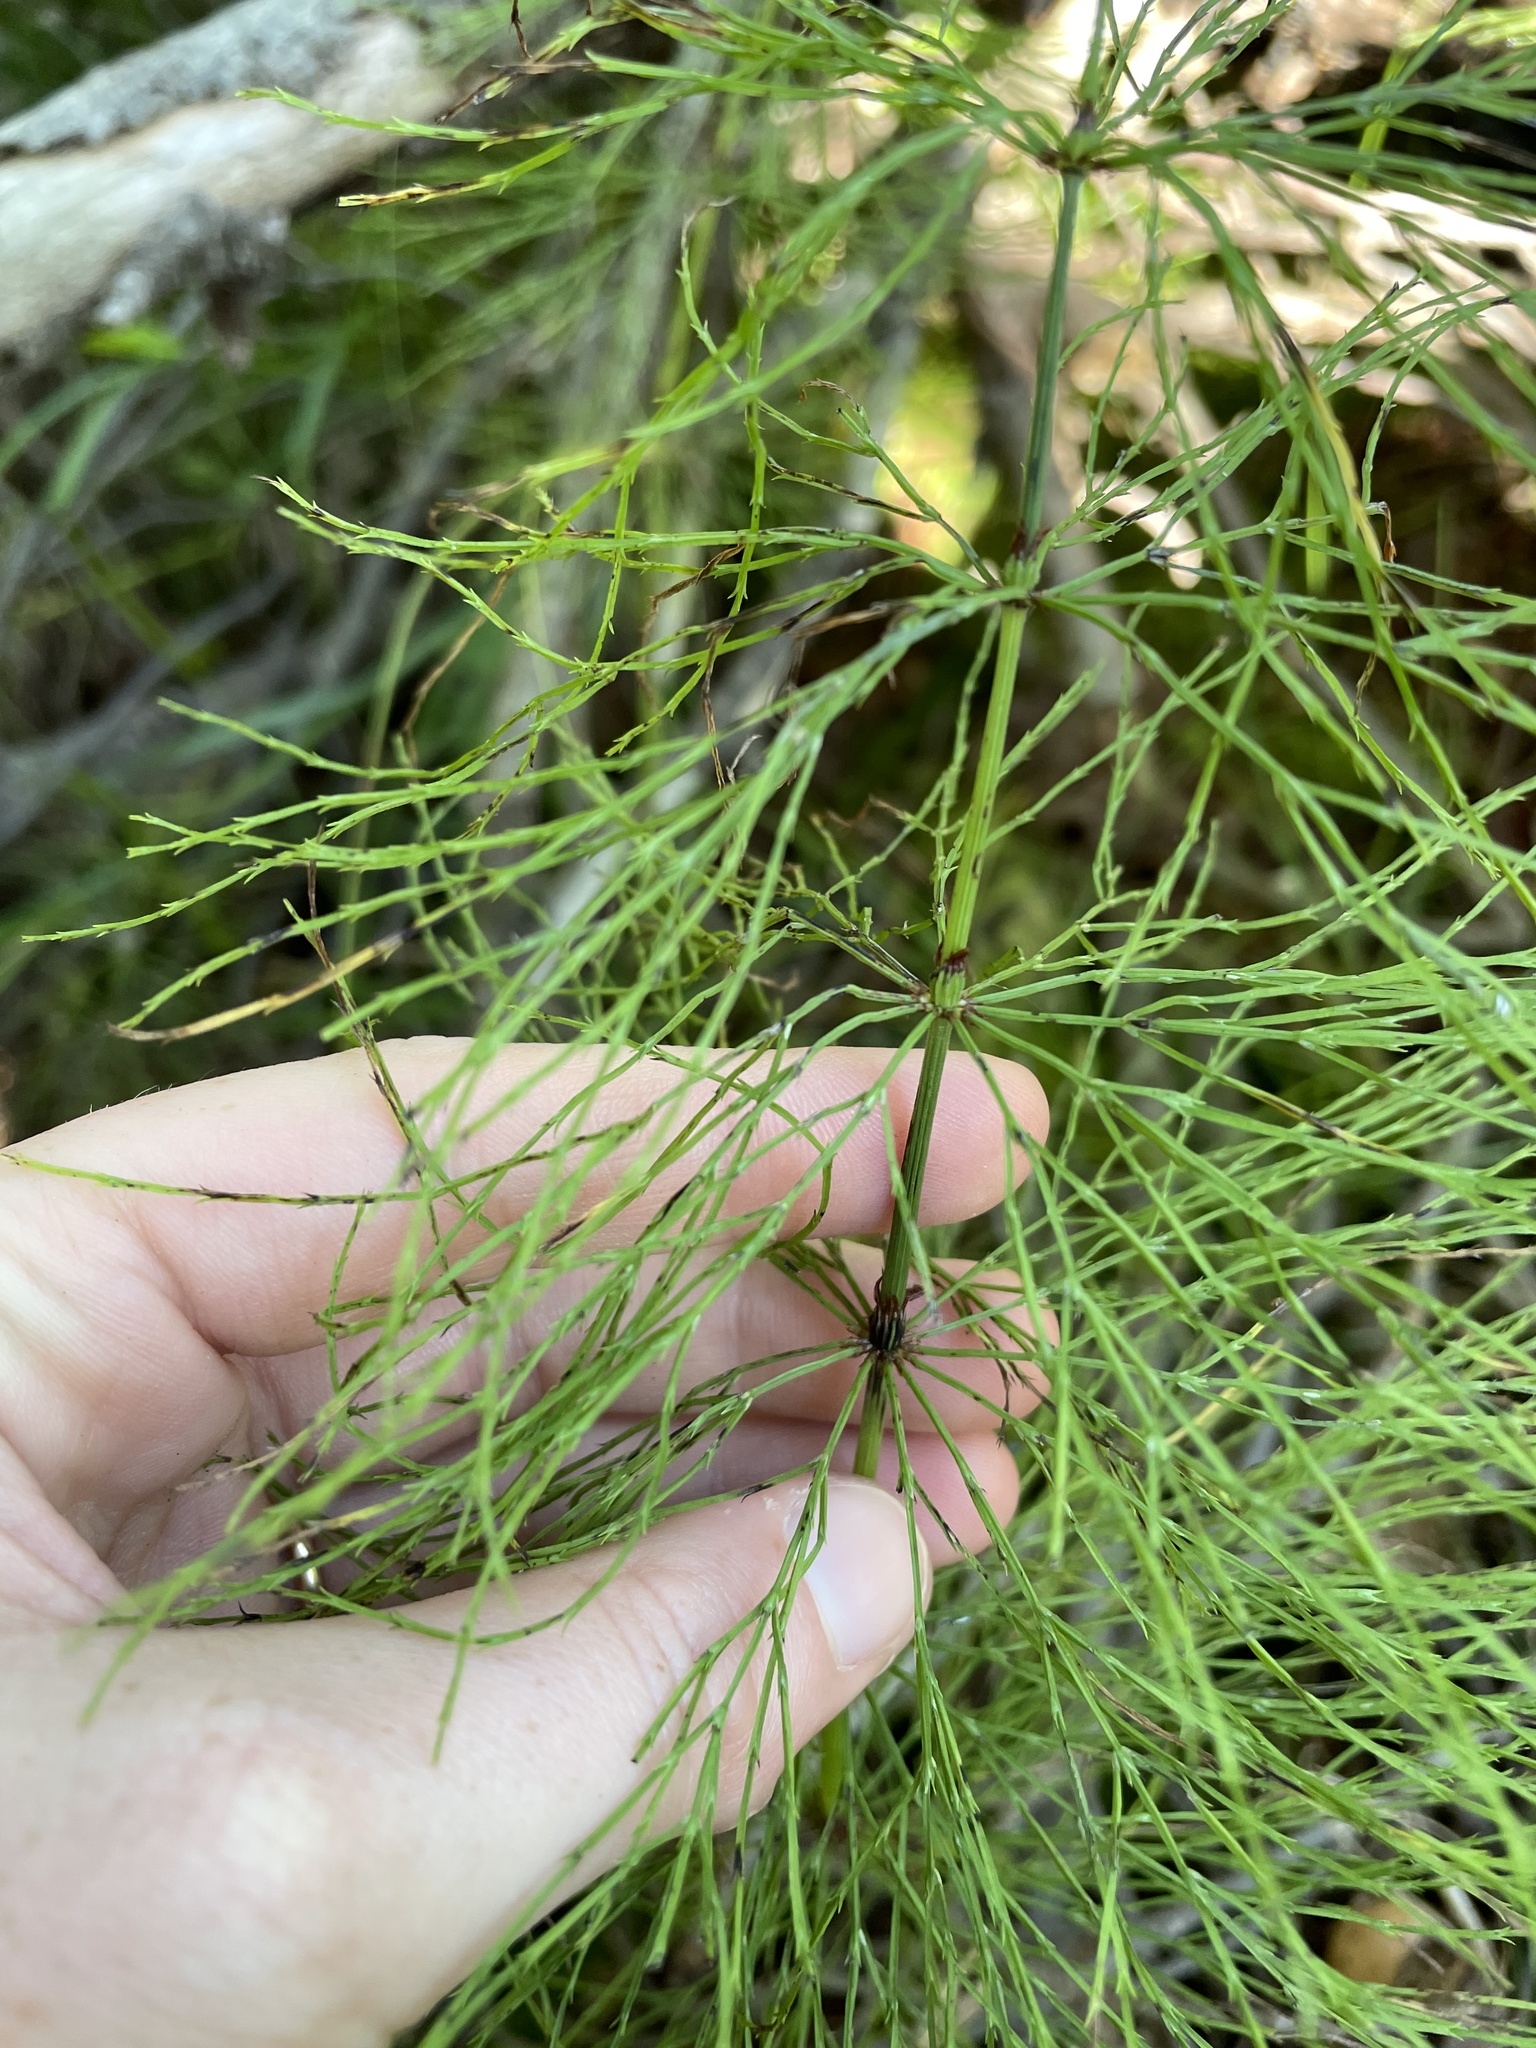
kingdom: Plantae
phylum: Tracheophyta
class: Polypodiopsida
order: Equisetales
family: Equisetaceae
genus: Equisetum
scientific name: Equisetum sylvaticum
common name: Wood horsetail
